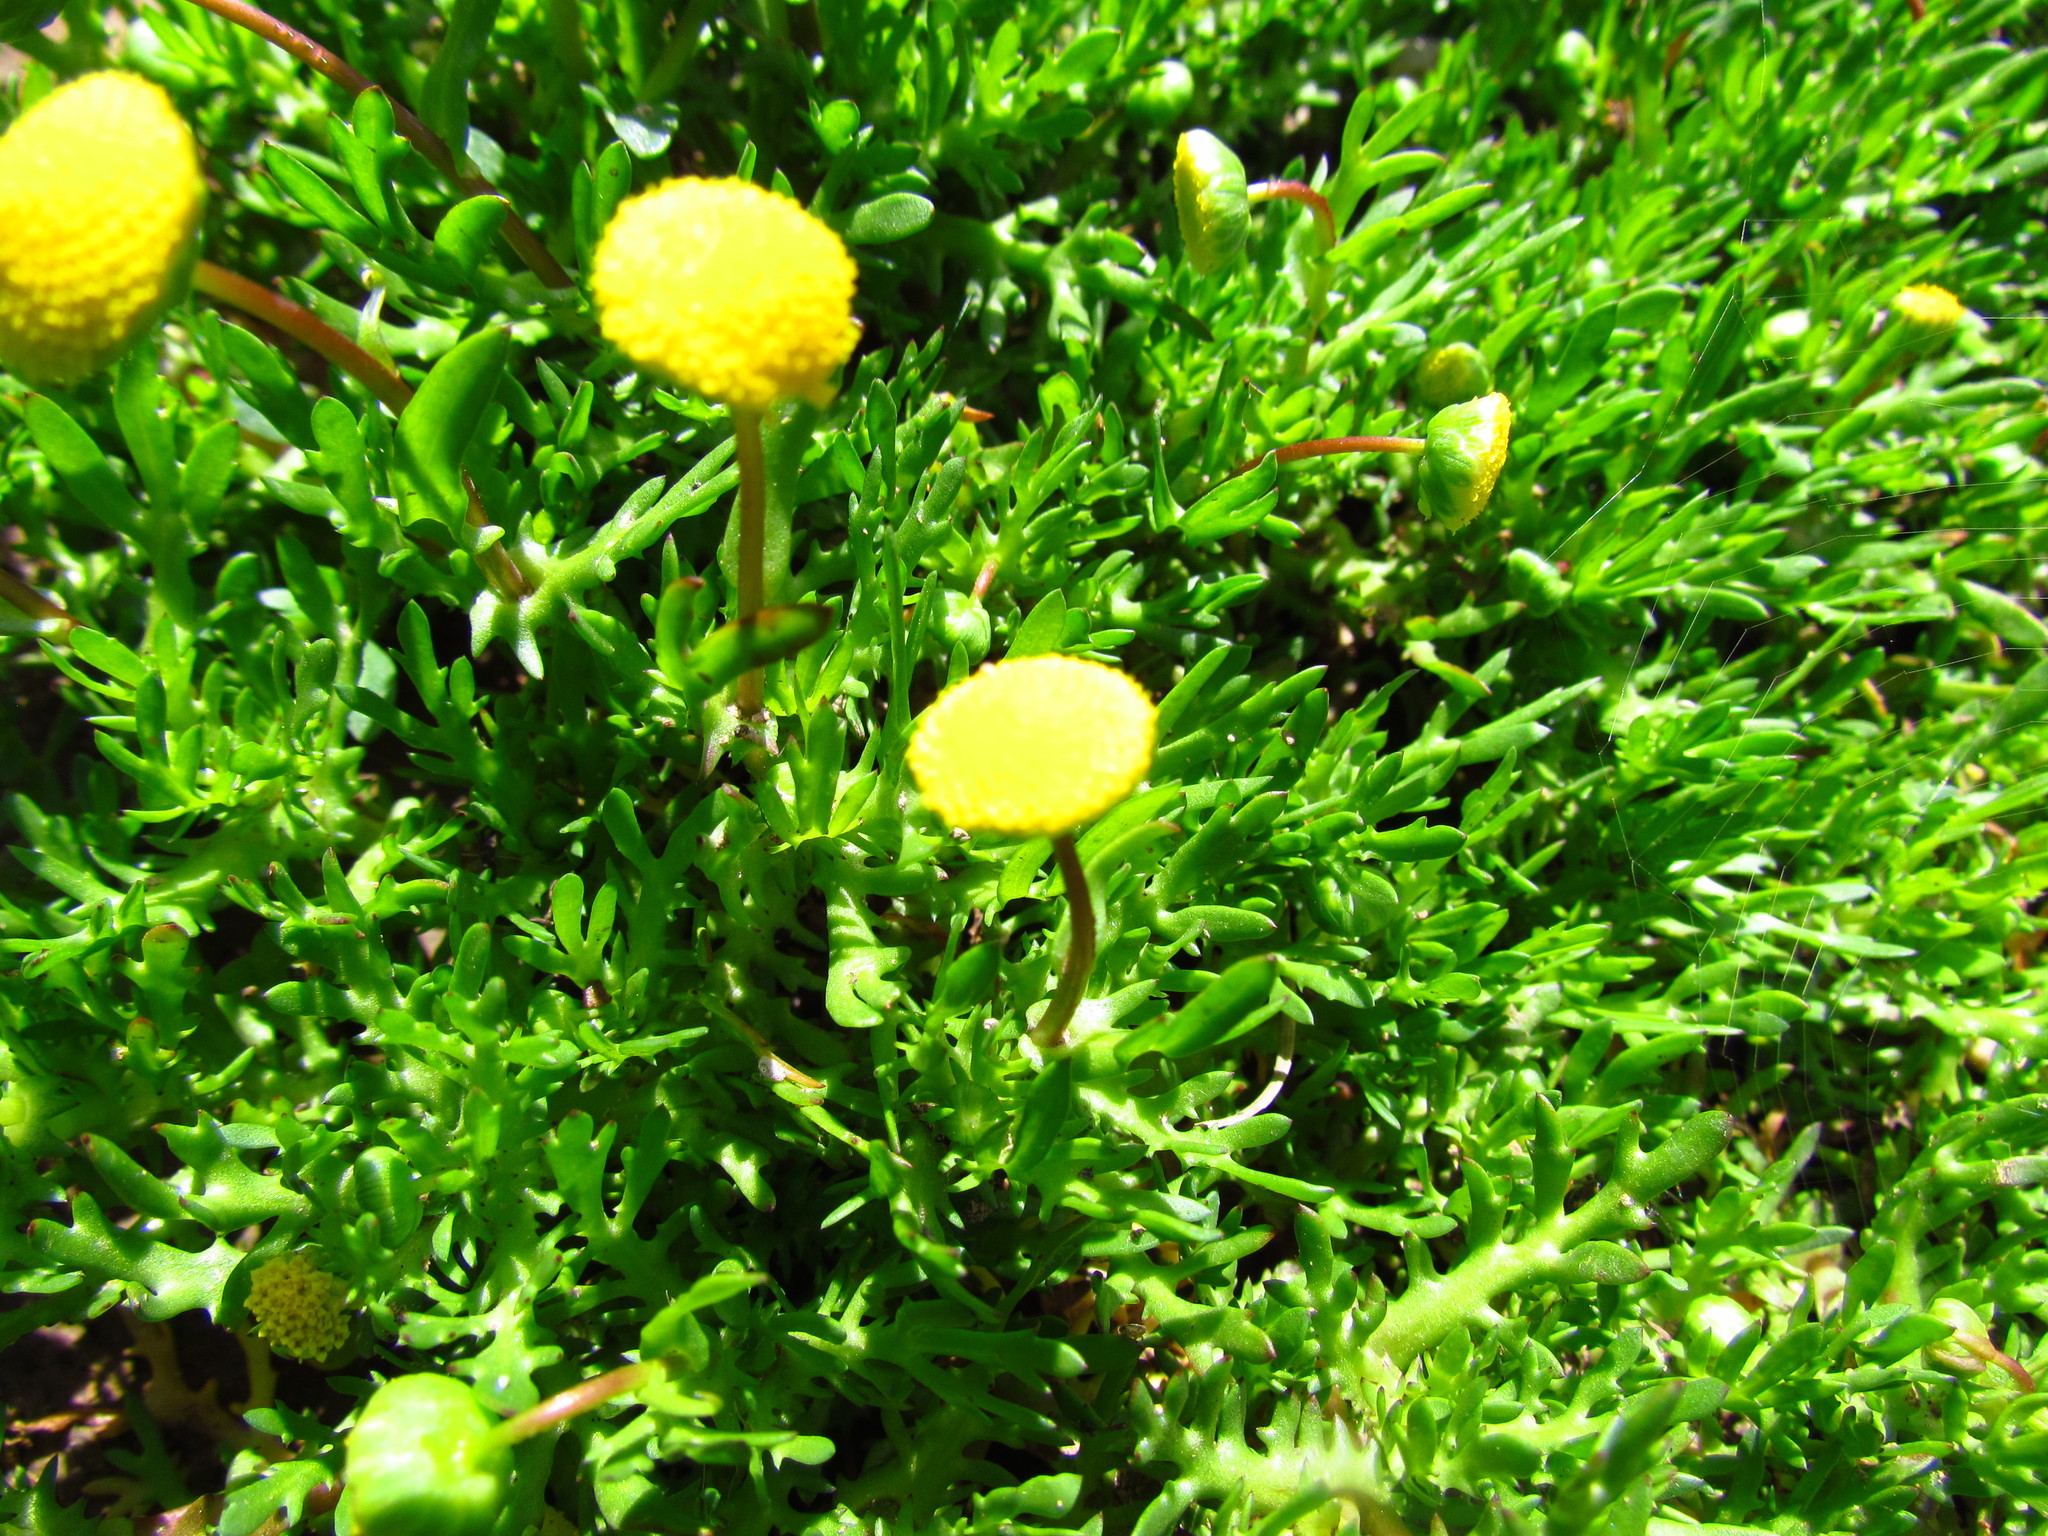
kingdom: Plantae
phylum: Tracheophyta
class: Magnoliopsida
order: Asterales
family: Asteraceae
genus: Cotula
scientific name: Cotula coronopifolia
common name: Buttonweed
